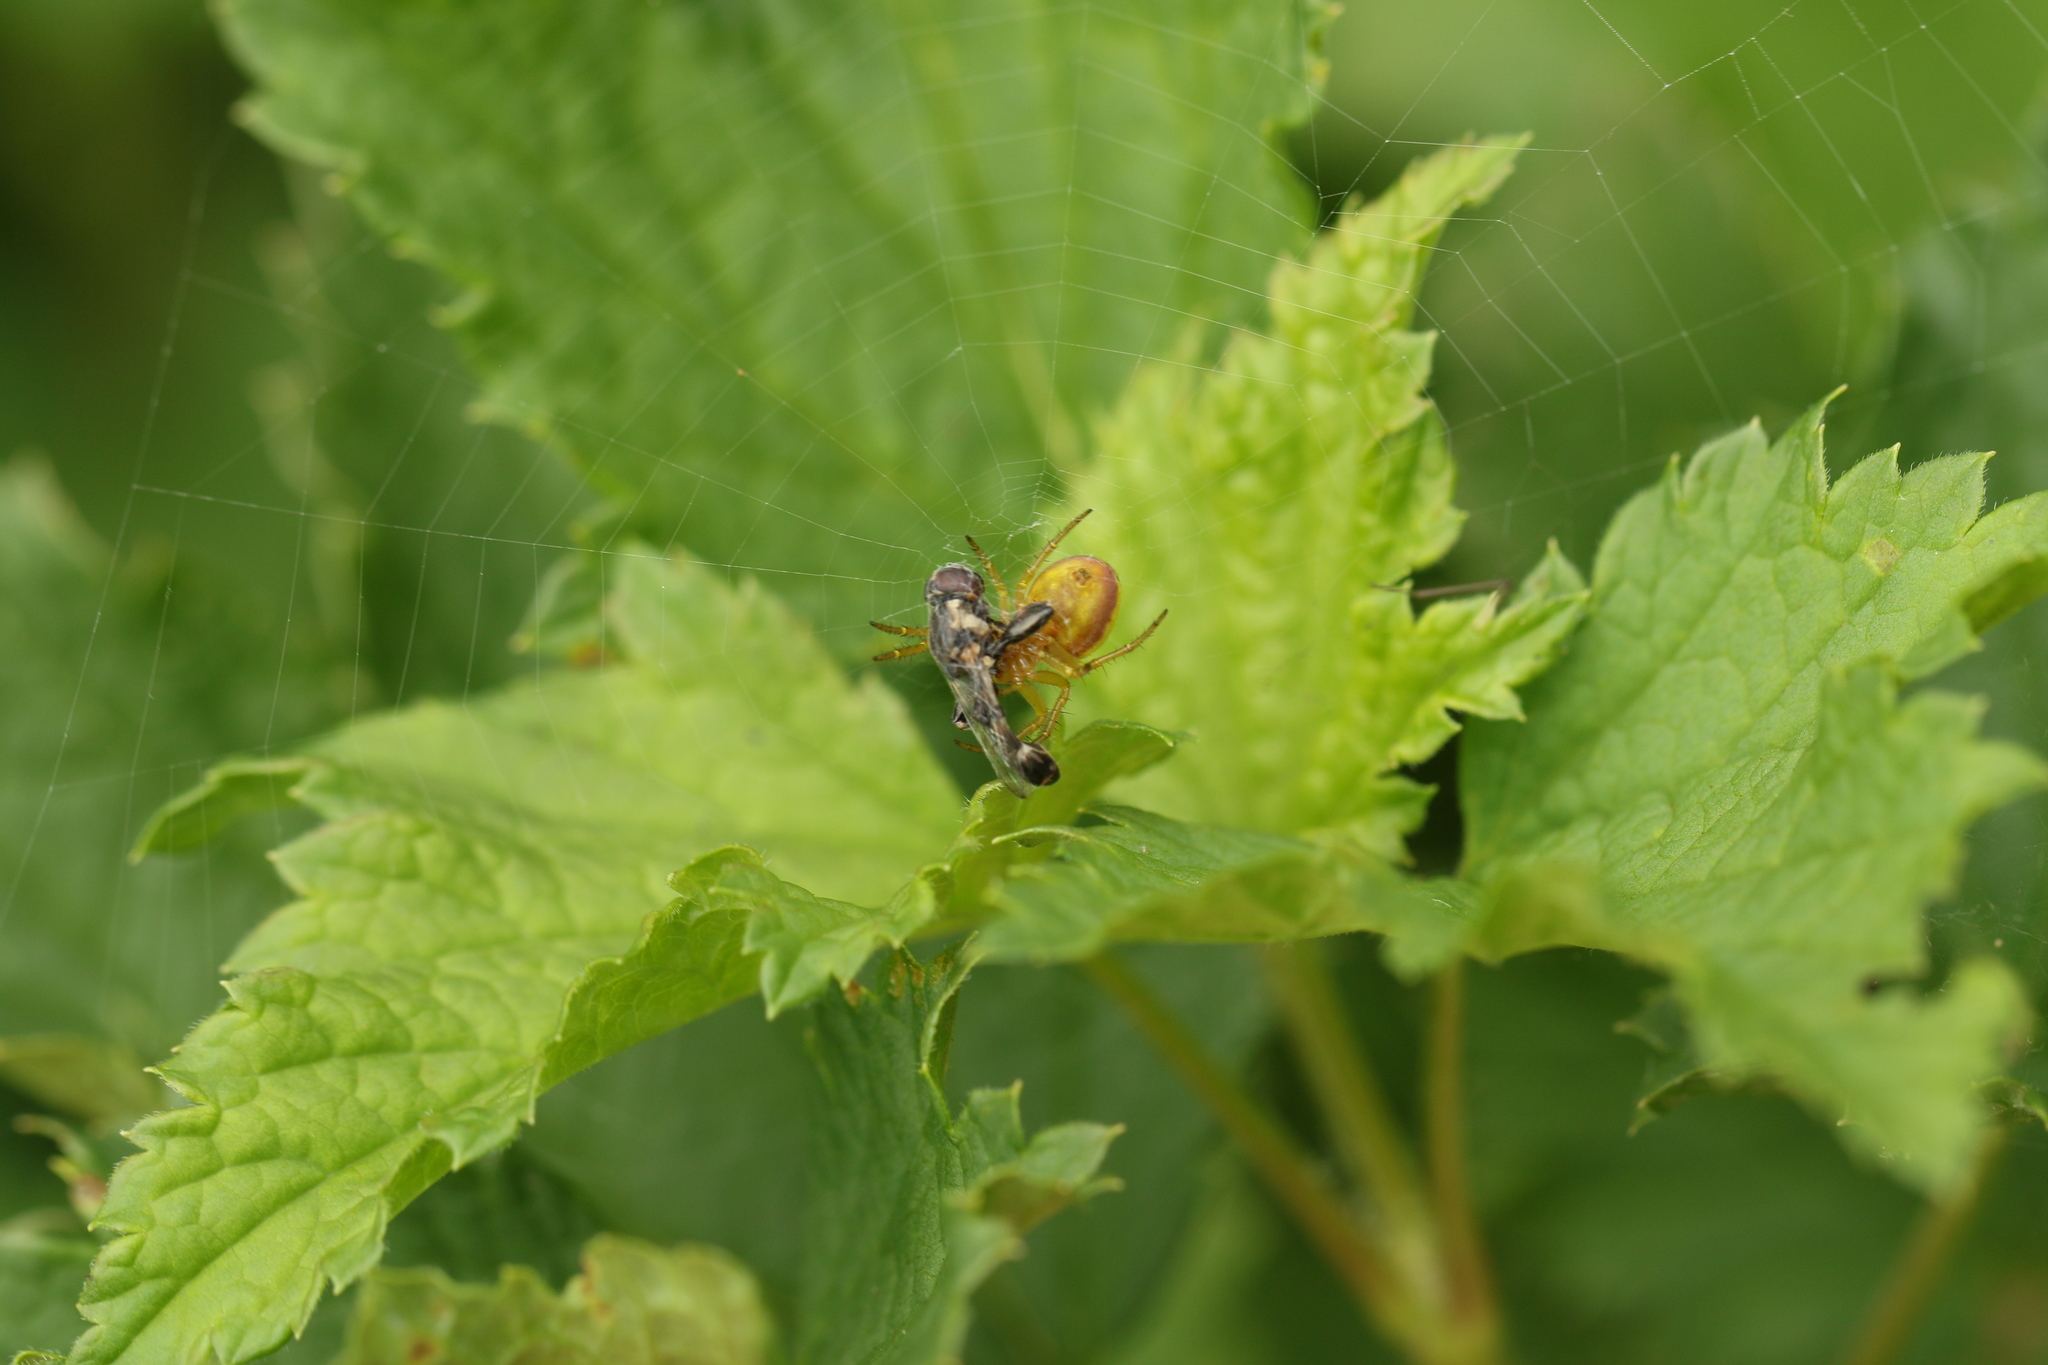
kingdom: Animalia
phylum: Arthropoda
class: Arachnida
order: Araneae
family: Araneidae
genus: Araniella
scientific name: Araniella displicata
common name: Sixspotted orb weaver
